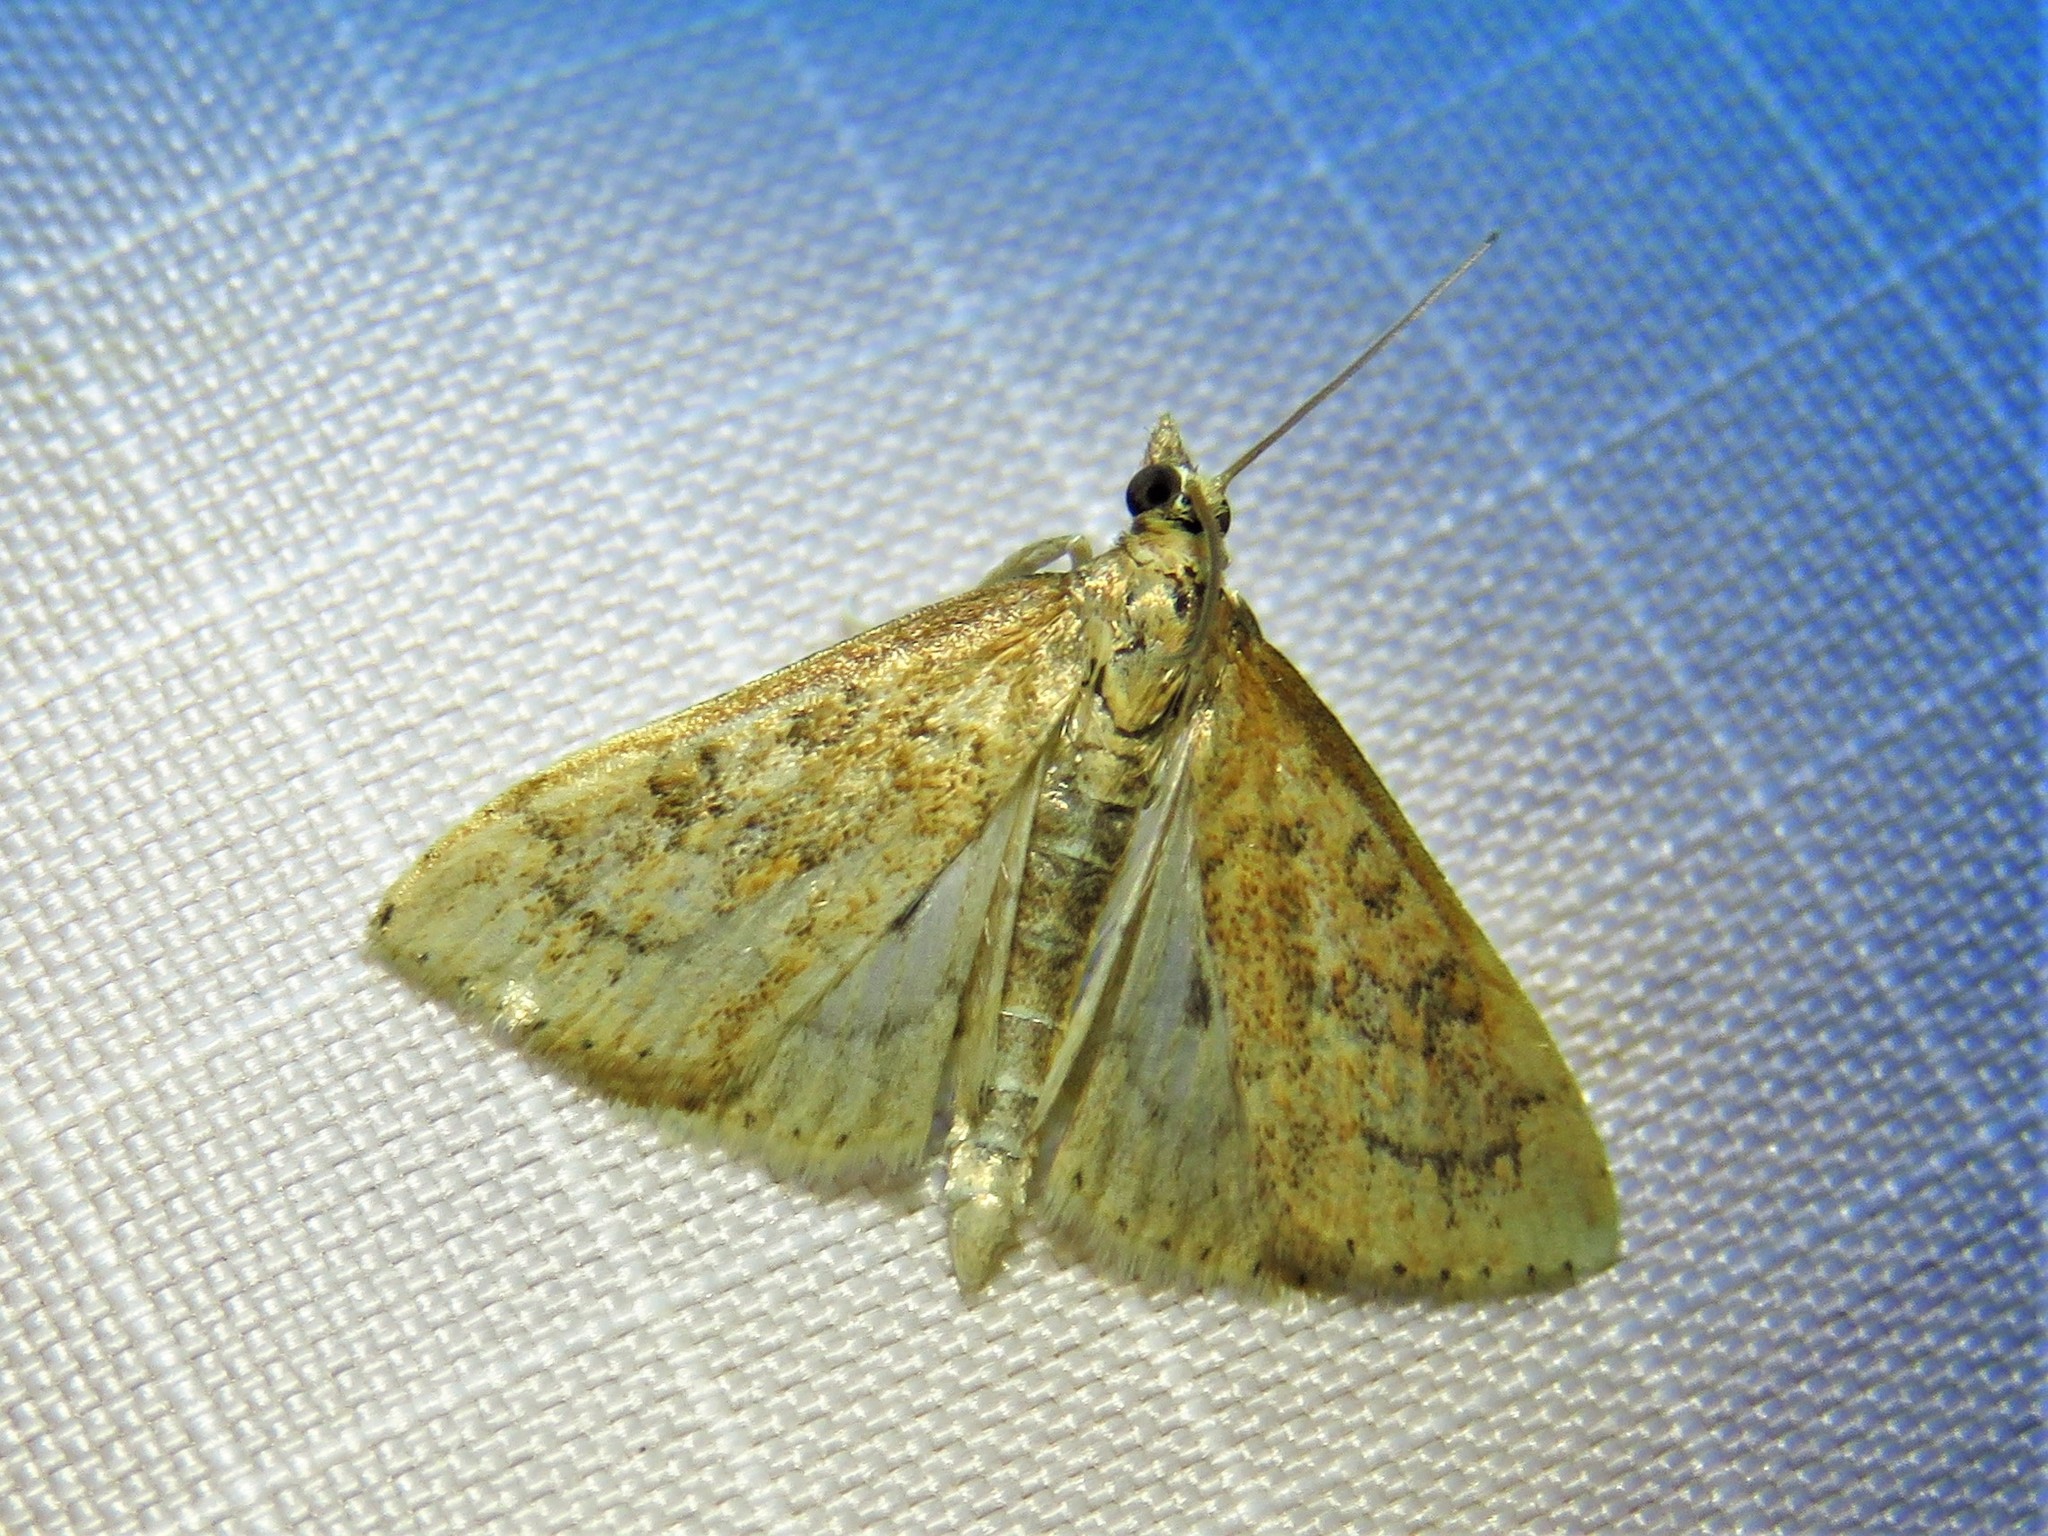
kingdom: Animalia
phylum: Arthropoda
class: Insecta
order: Lepidoptera
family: Crambidae
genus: Udea
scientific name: Udea rubigalis
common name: Celery leaftier moth
